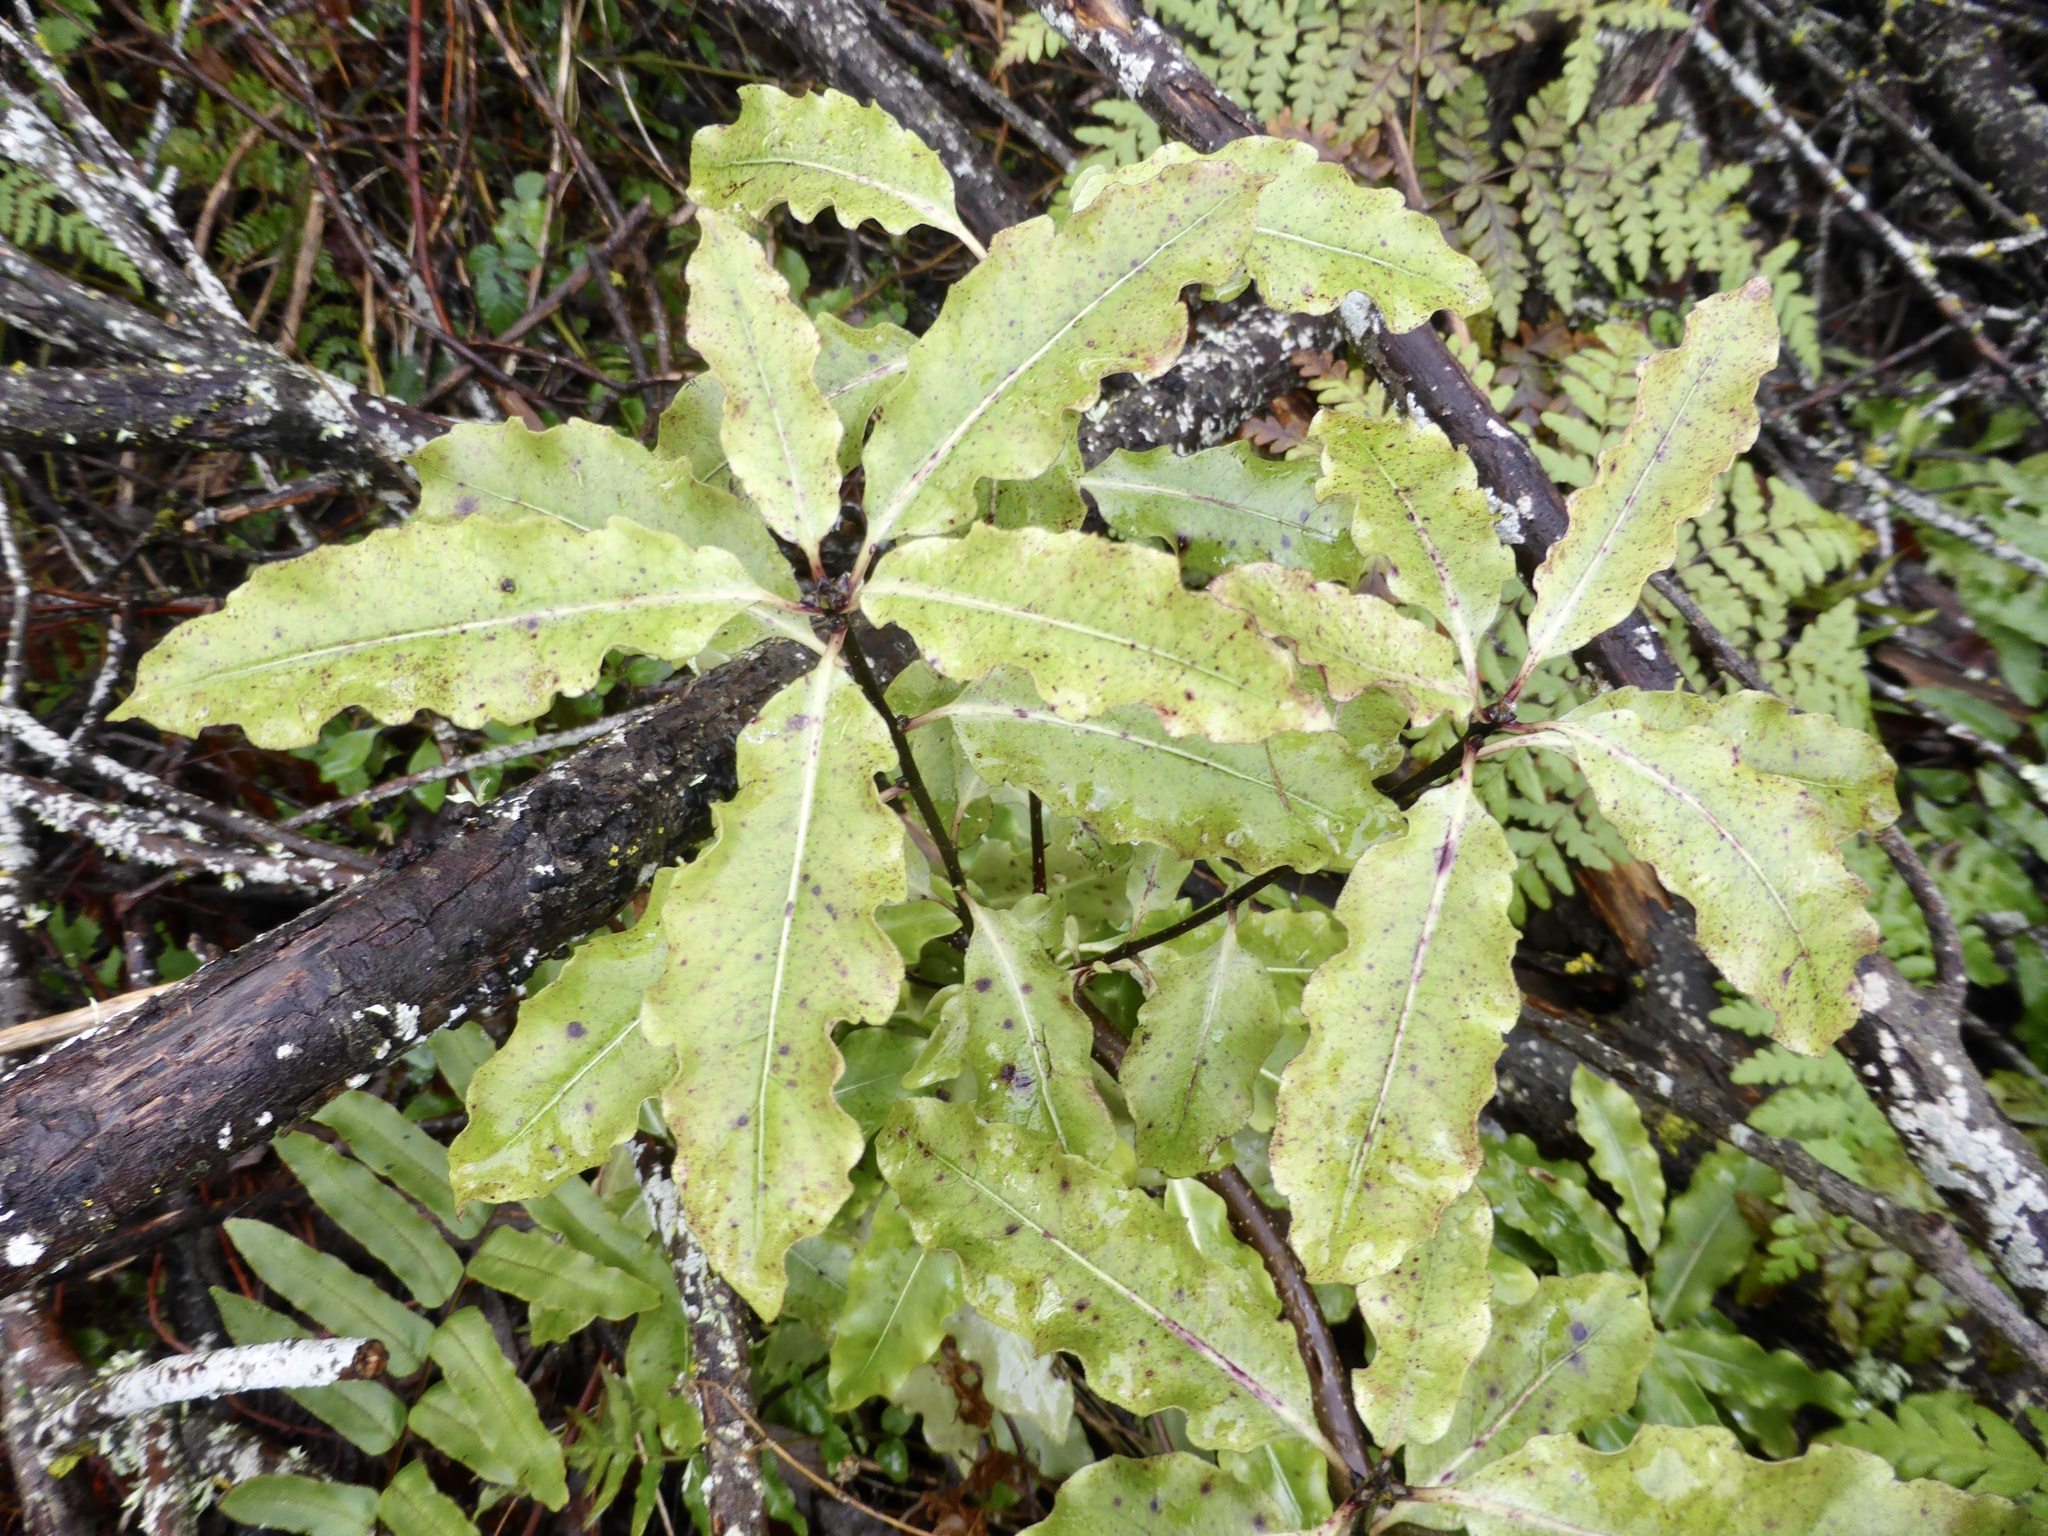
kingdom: Plantae
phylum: Tracheophyta
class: Magnoliopsida
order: Apiales
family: Pittosporaceae
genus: Pittosporum
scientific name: Pittosporum eugenioides
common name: Lemonwood
